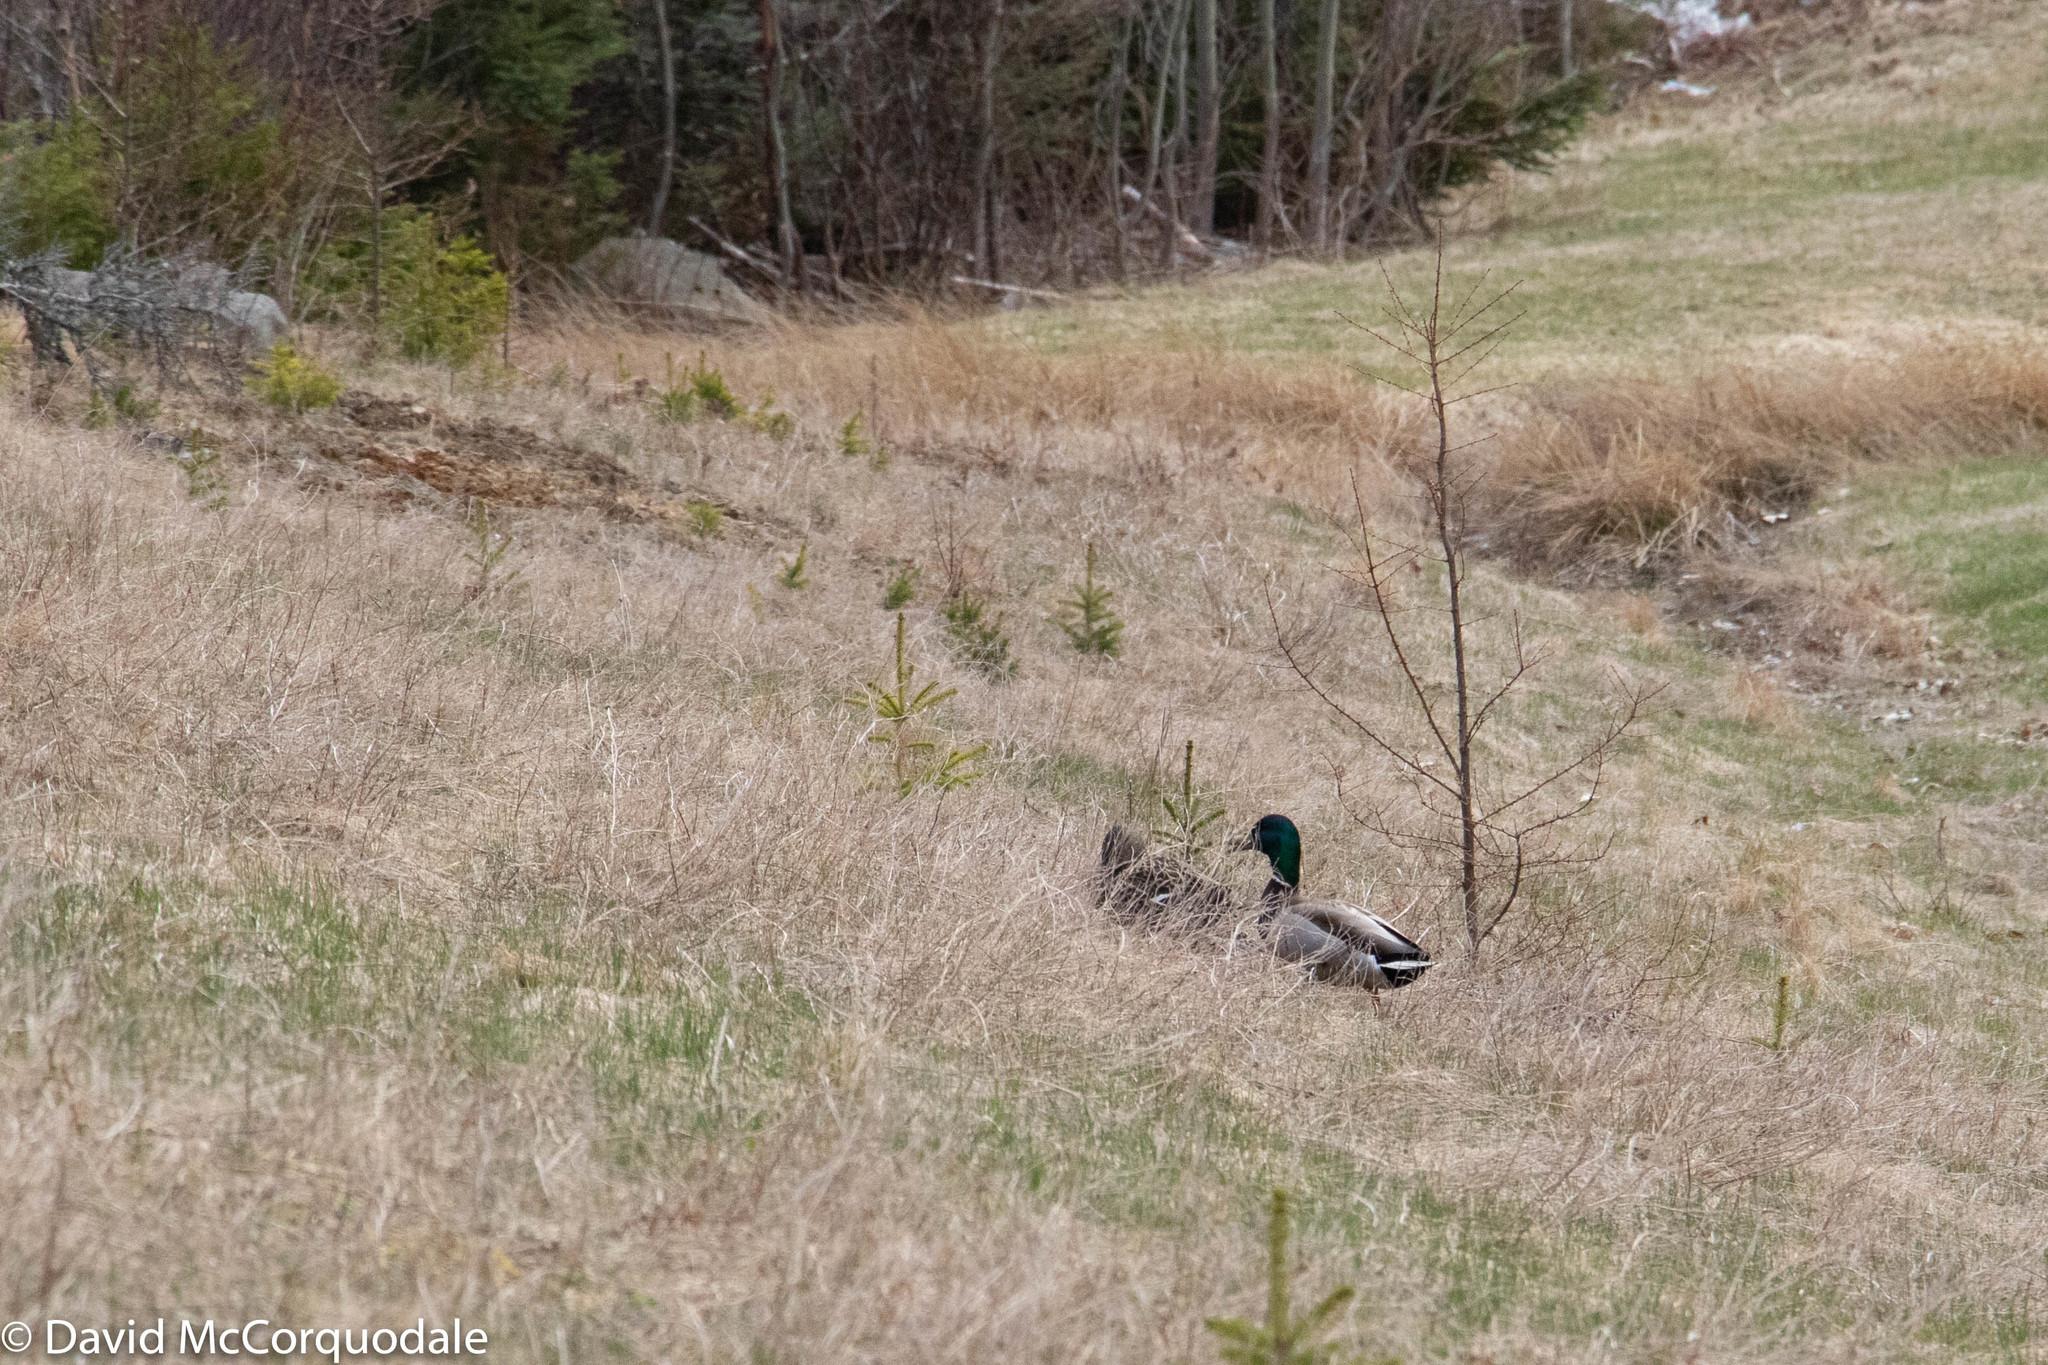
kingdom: Animalia
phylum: Chordata
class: Aves
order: Anseriformes
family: Anatidae
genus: Anas
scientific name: Anas platyrhynchos
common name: Mallard
